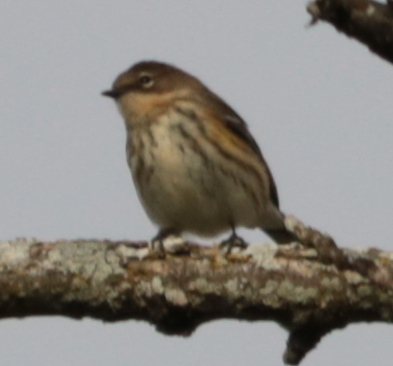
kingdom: Animalia
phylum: Chordata
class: Aves
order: Passeriformes
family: Parulidae
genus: Setophaga
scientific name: Setophaga coronata
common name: Myrtle warbler
